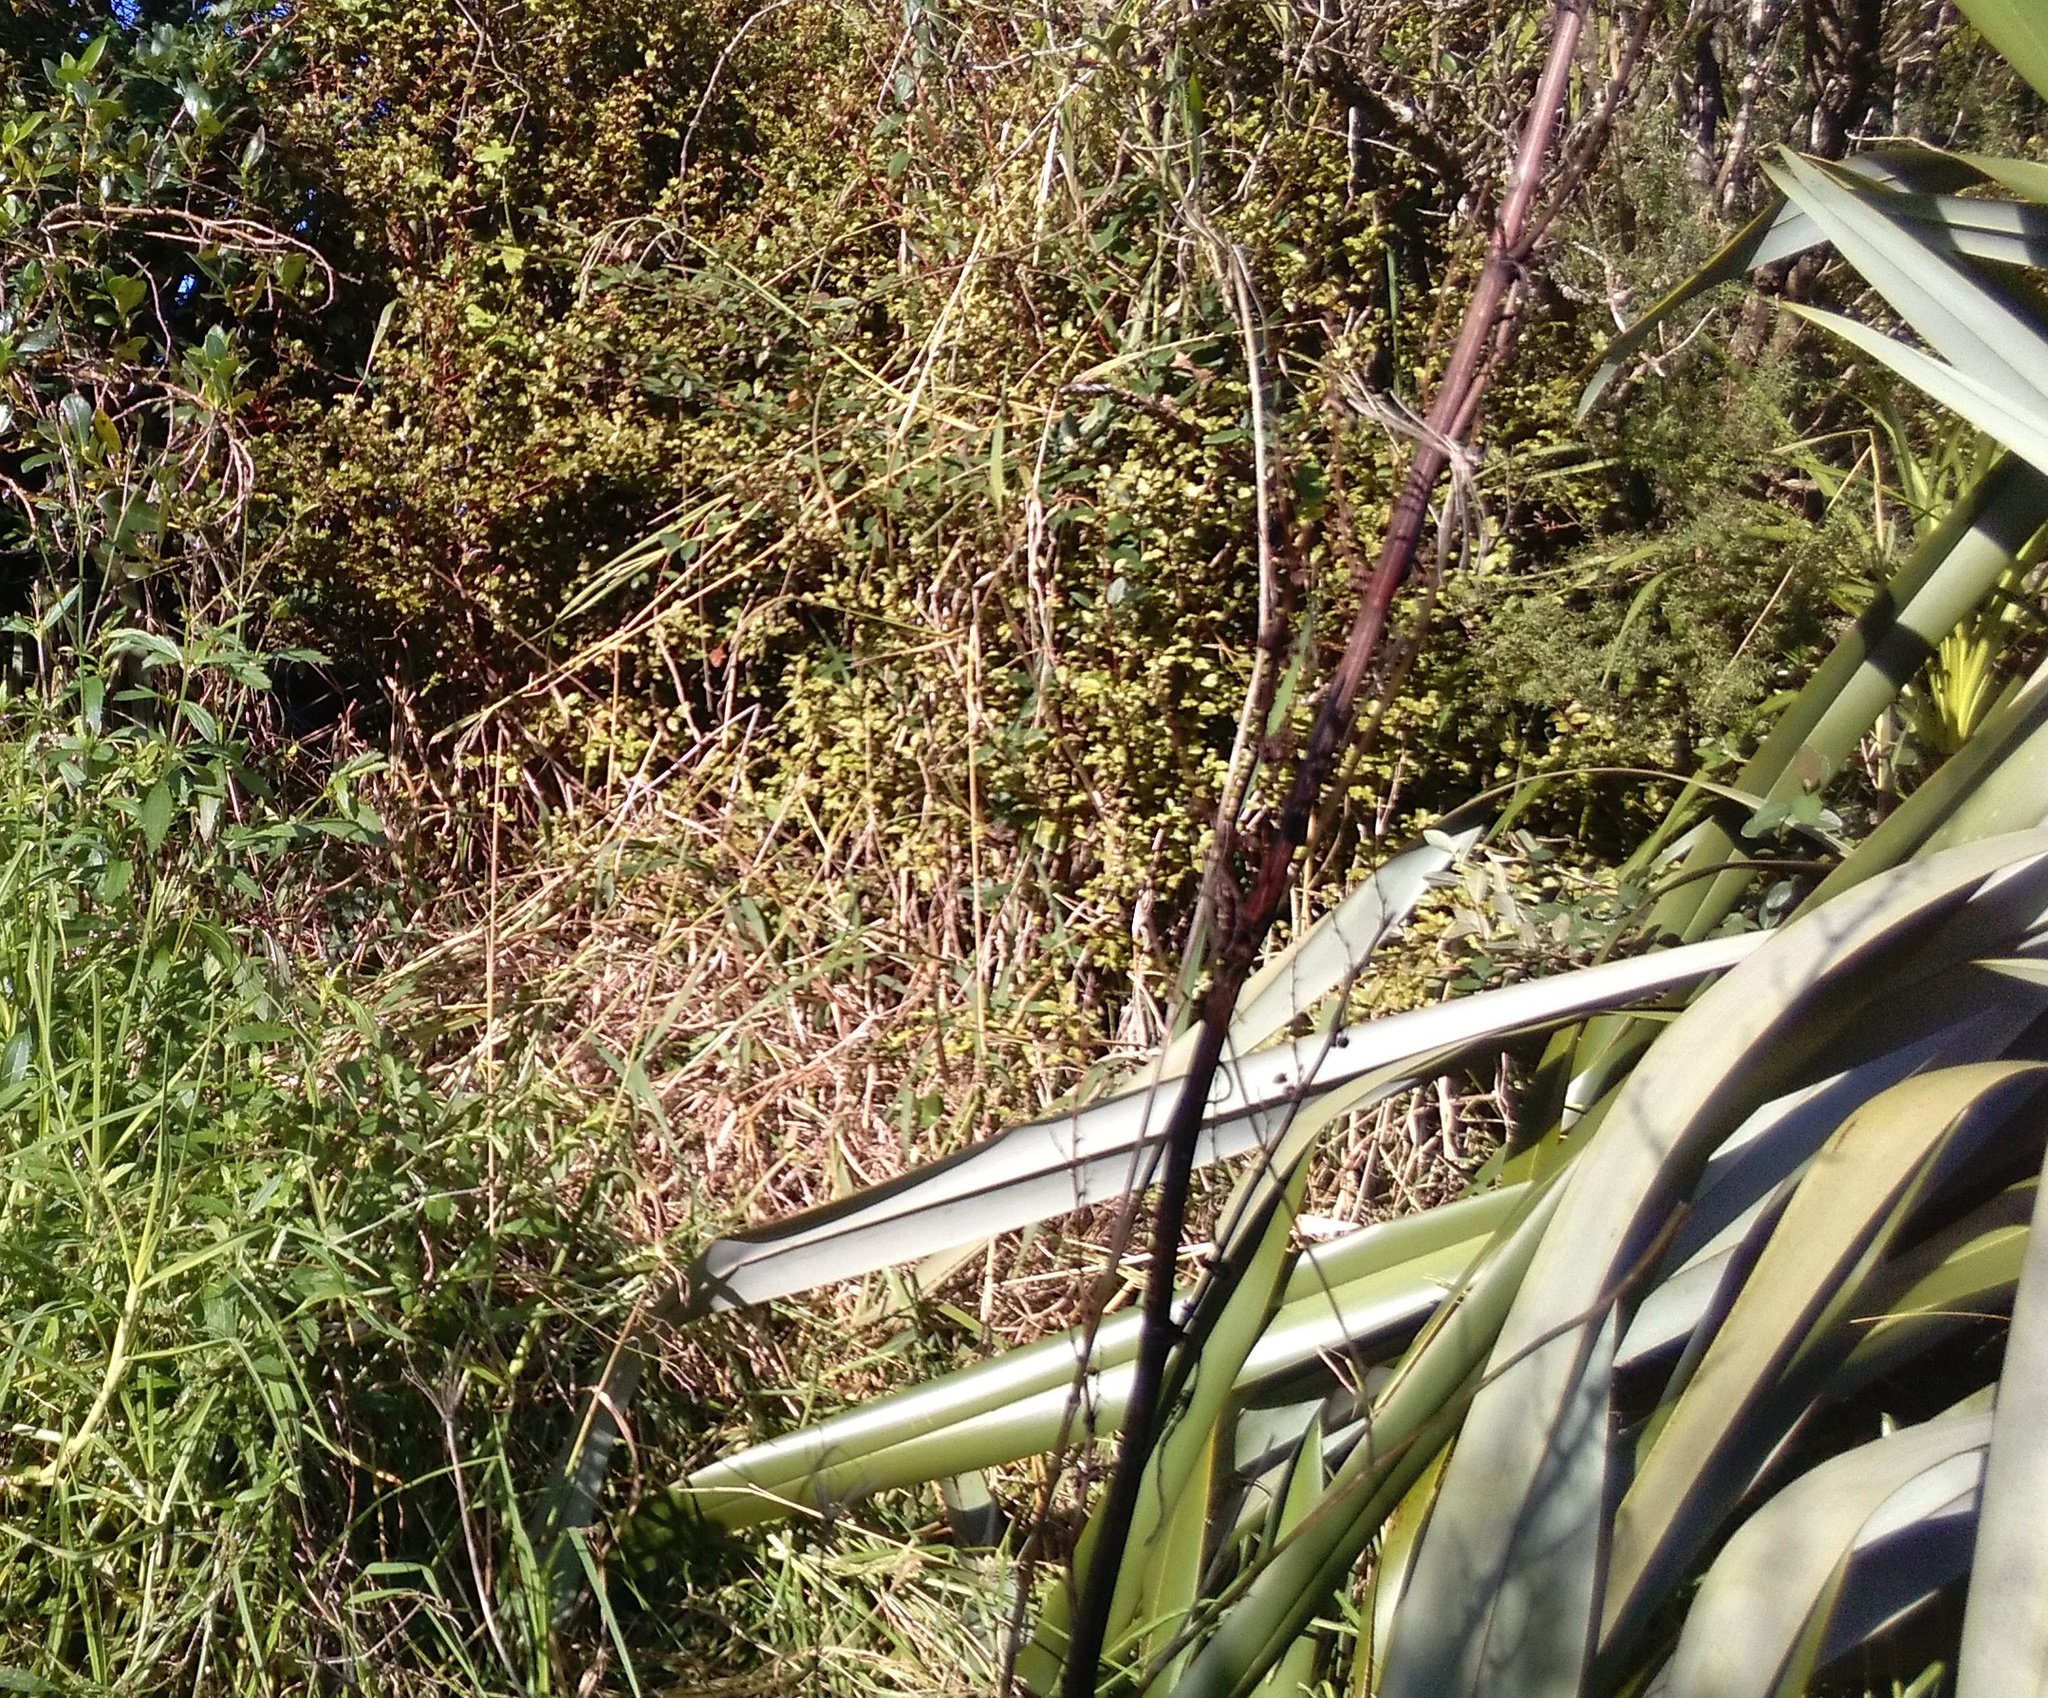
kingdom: Plantae
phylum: Tracheophyta
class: Magnoliopsida
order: Lamiales
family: Verbenaceae
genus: Verbena
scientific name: Verbena litoralis
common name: Seashore vervain
